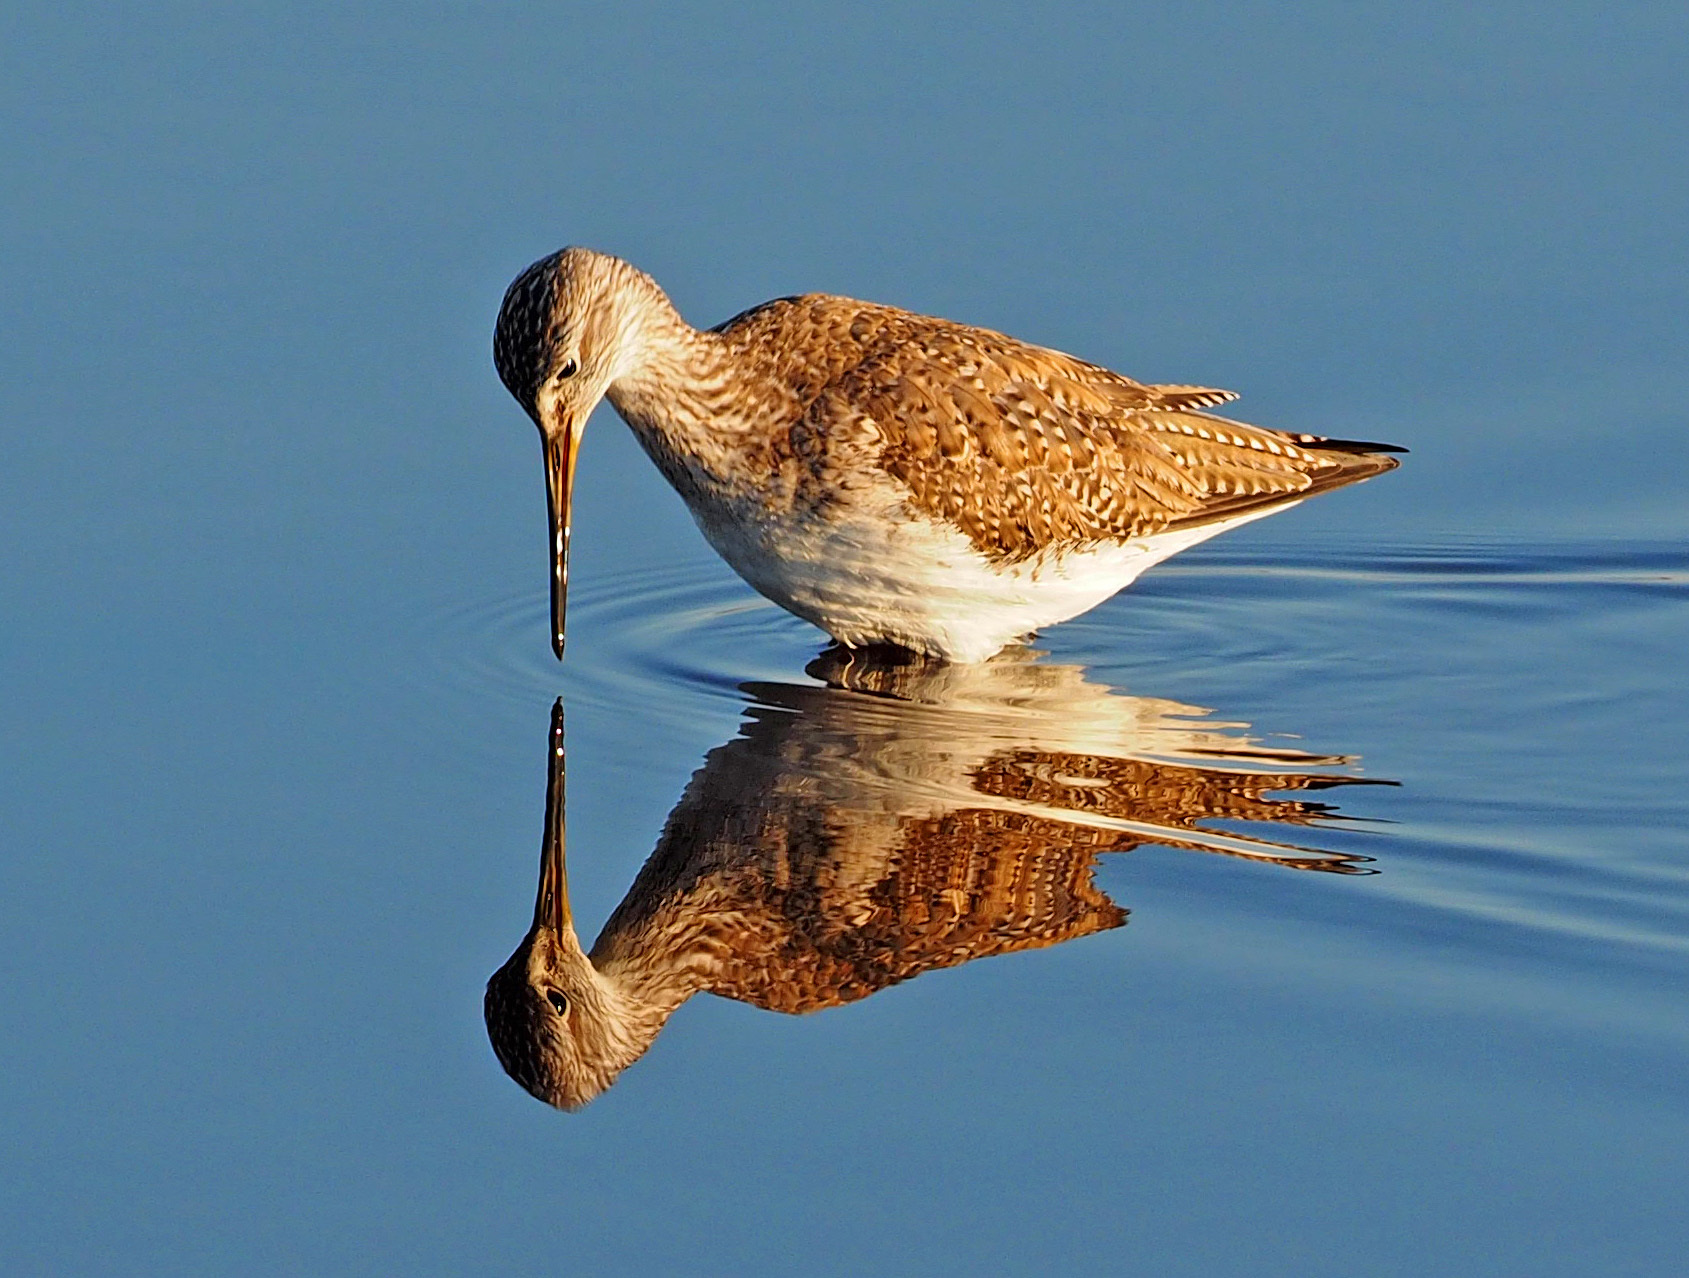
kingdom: Animalia
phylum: Chordata
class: Aves
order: Charadriiformes
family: Scolopacidae
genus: Tringa
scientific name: Tringa melanoleuca
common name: Greater yellowlegs
